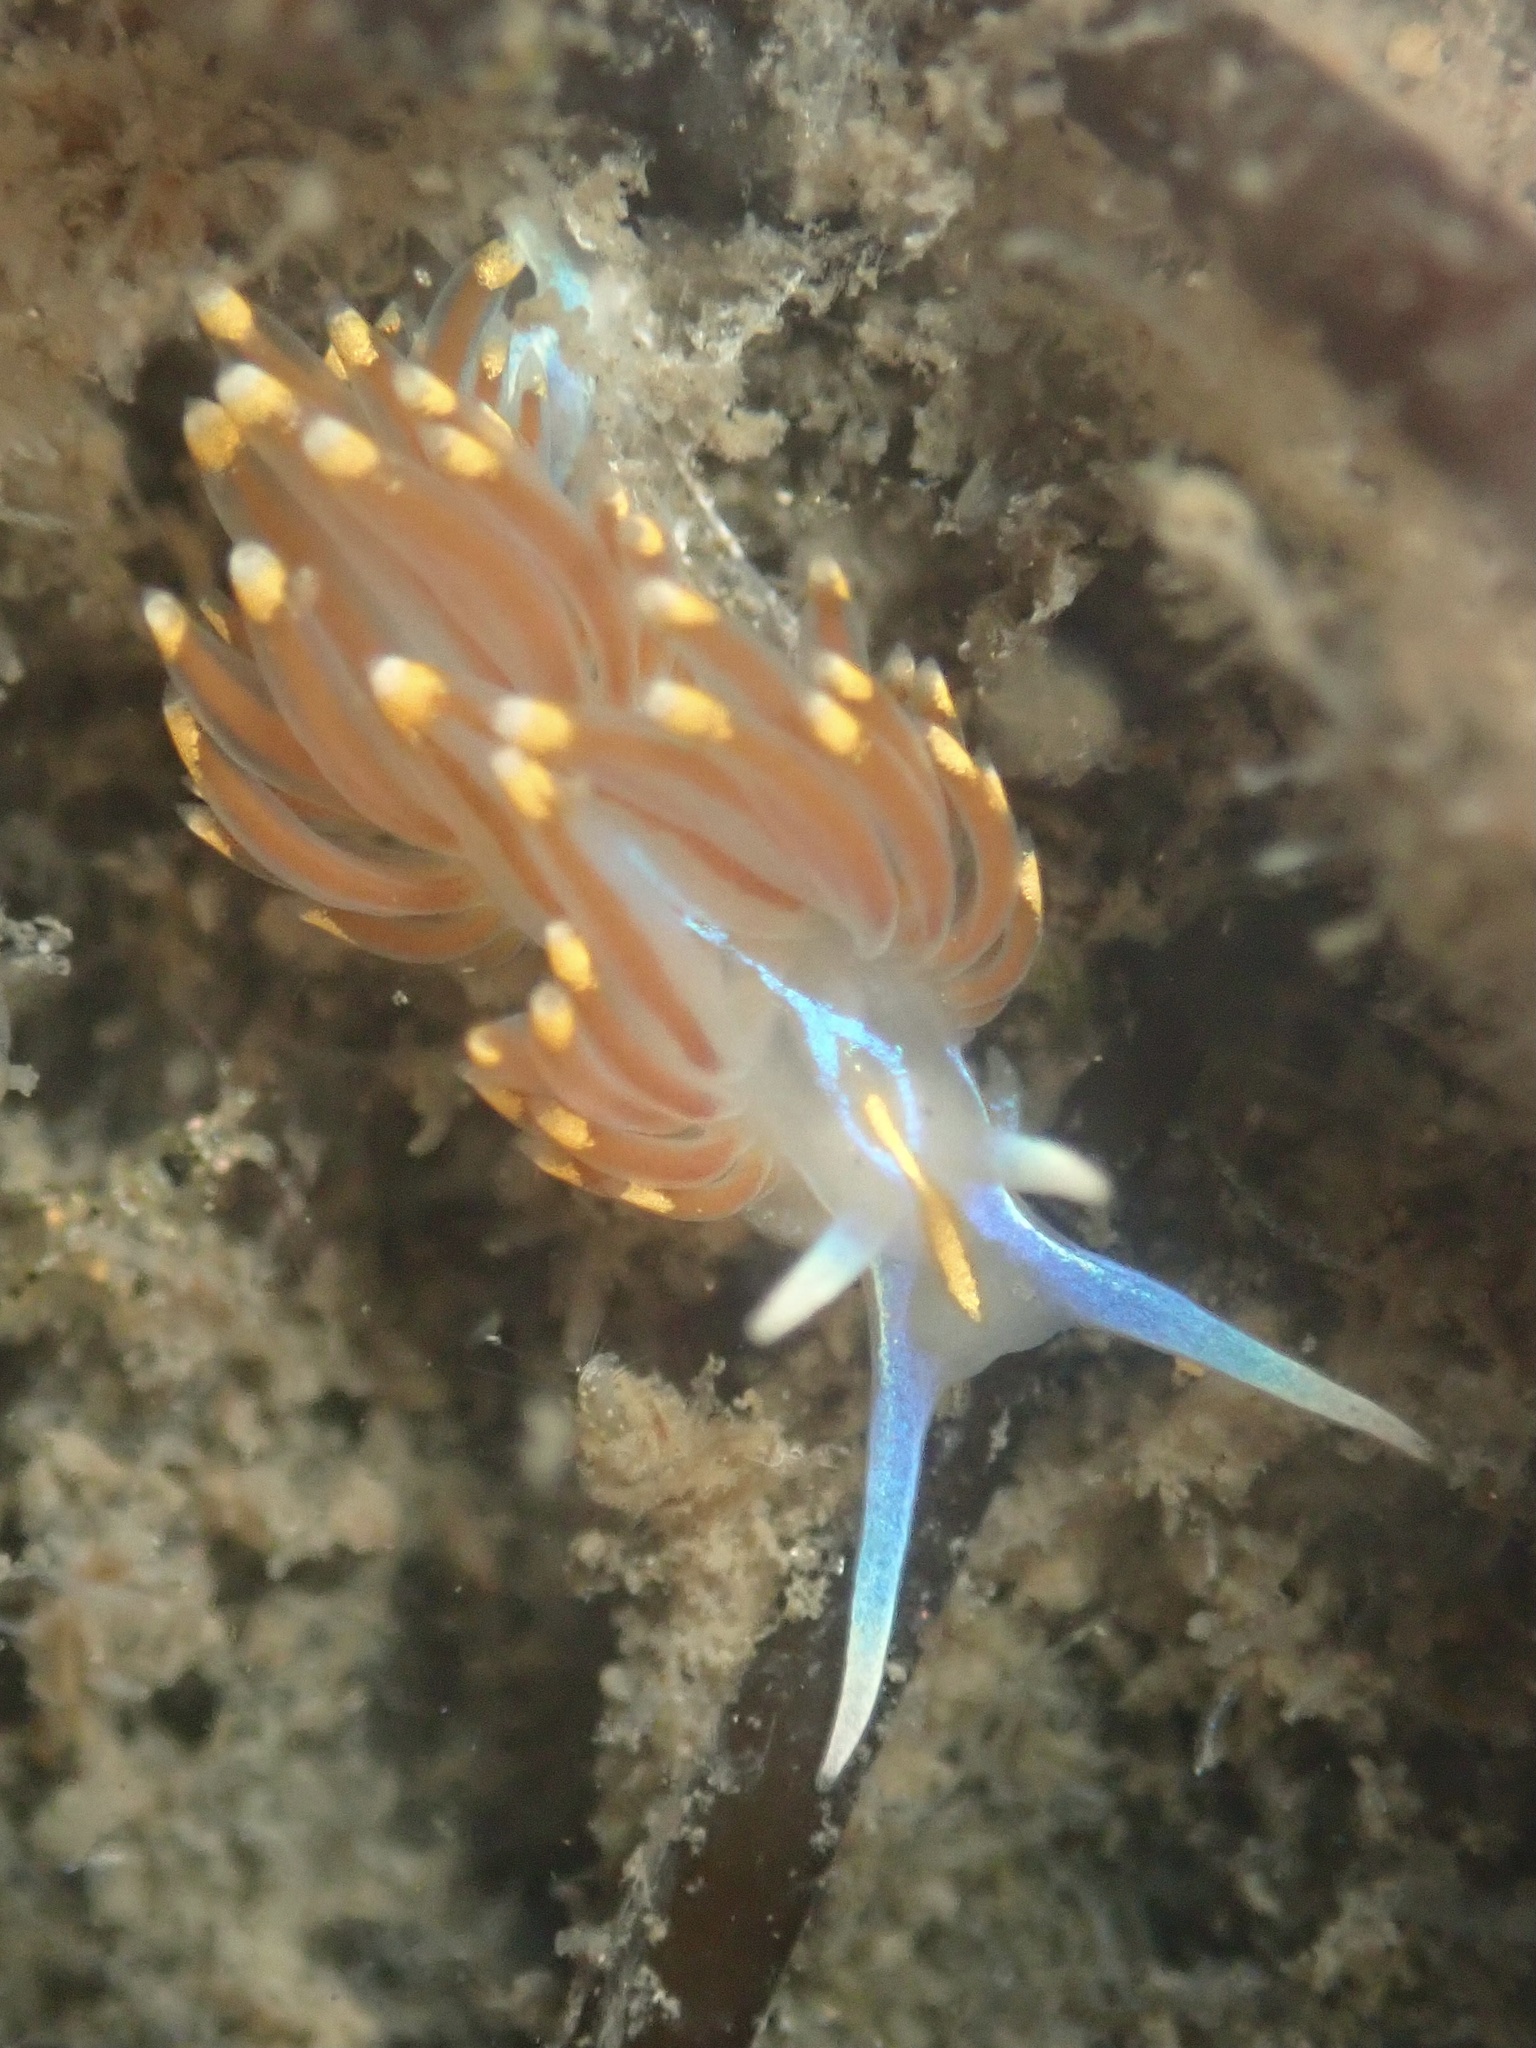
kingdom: Animalia
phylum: Mollusca
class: Gastropoda
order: Nudibranchia
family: Myrrhinidae
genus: Hermissenda
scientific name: Hermissenda opalescens
